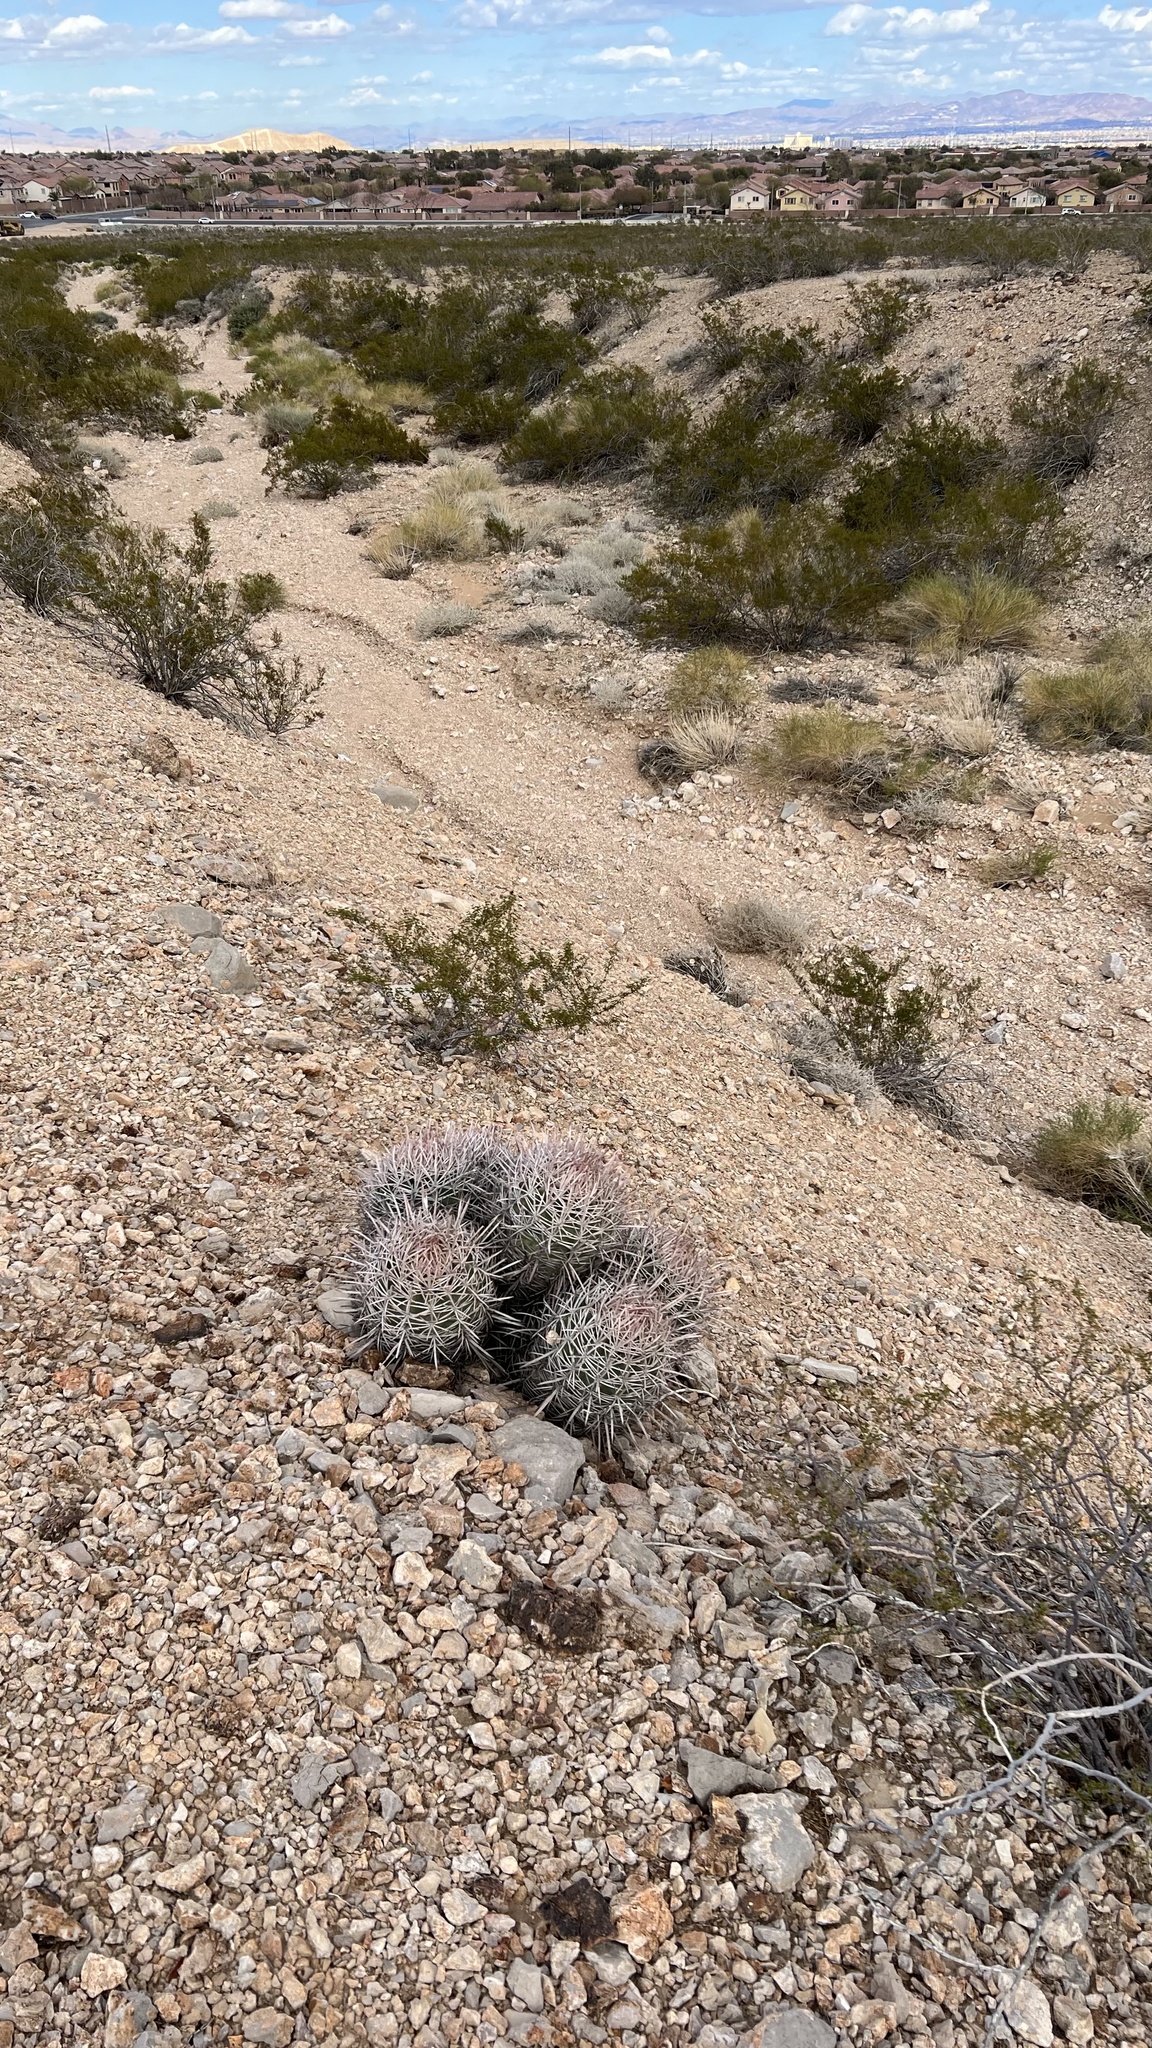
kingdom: Plantae
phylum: Tracheophyta
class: Magnoliopsida
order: Caryophyllales
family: Cactaceae
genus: Echinocactus
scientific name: Echinocactus polycephalus
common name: Cottontop cactus
